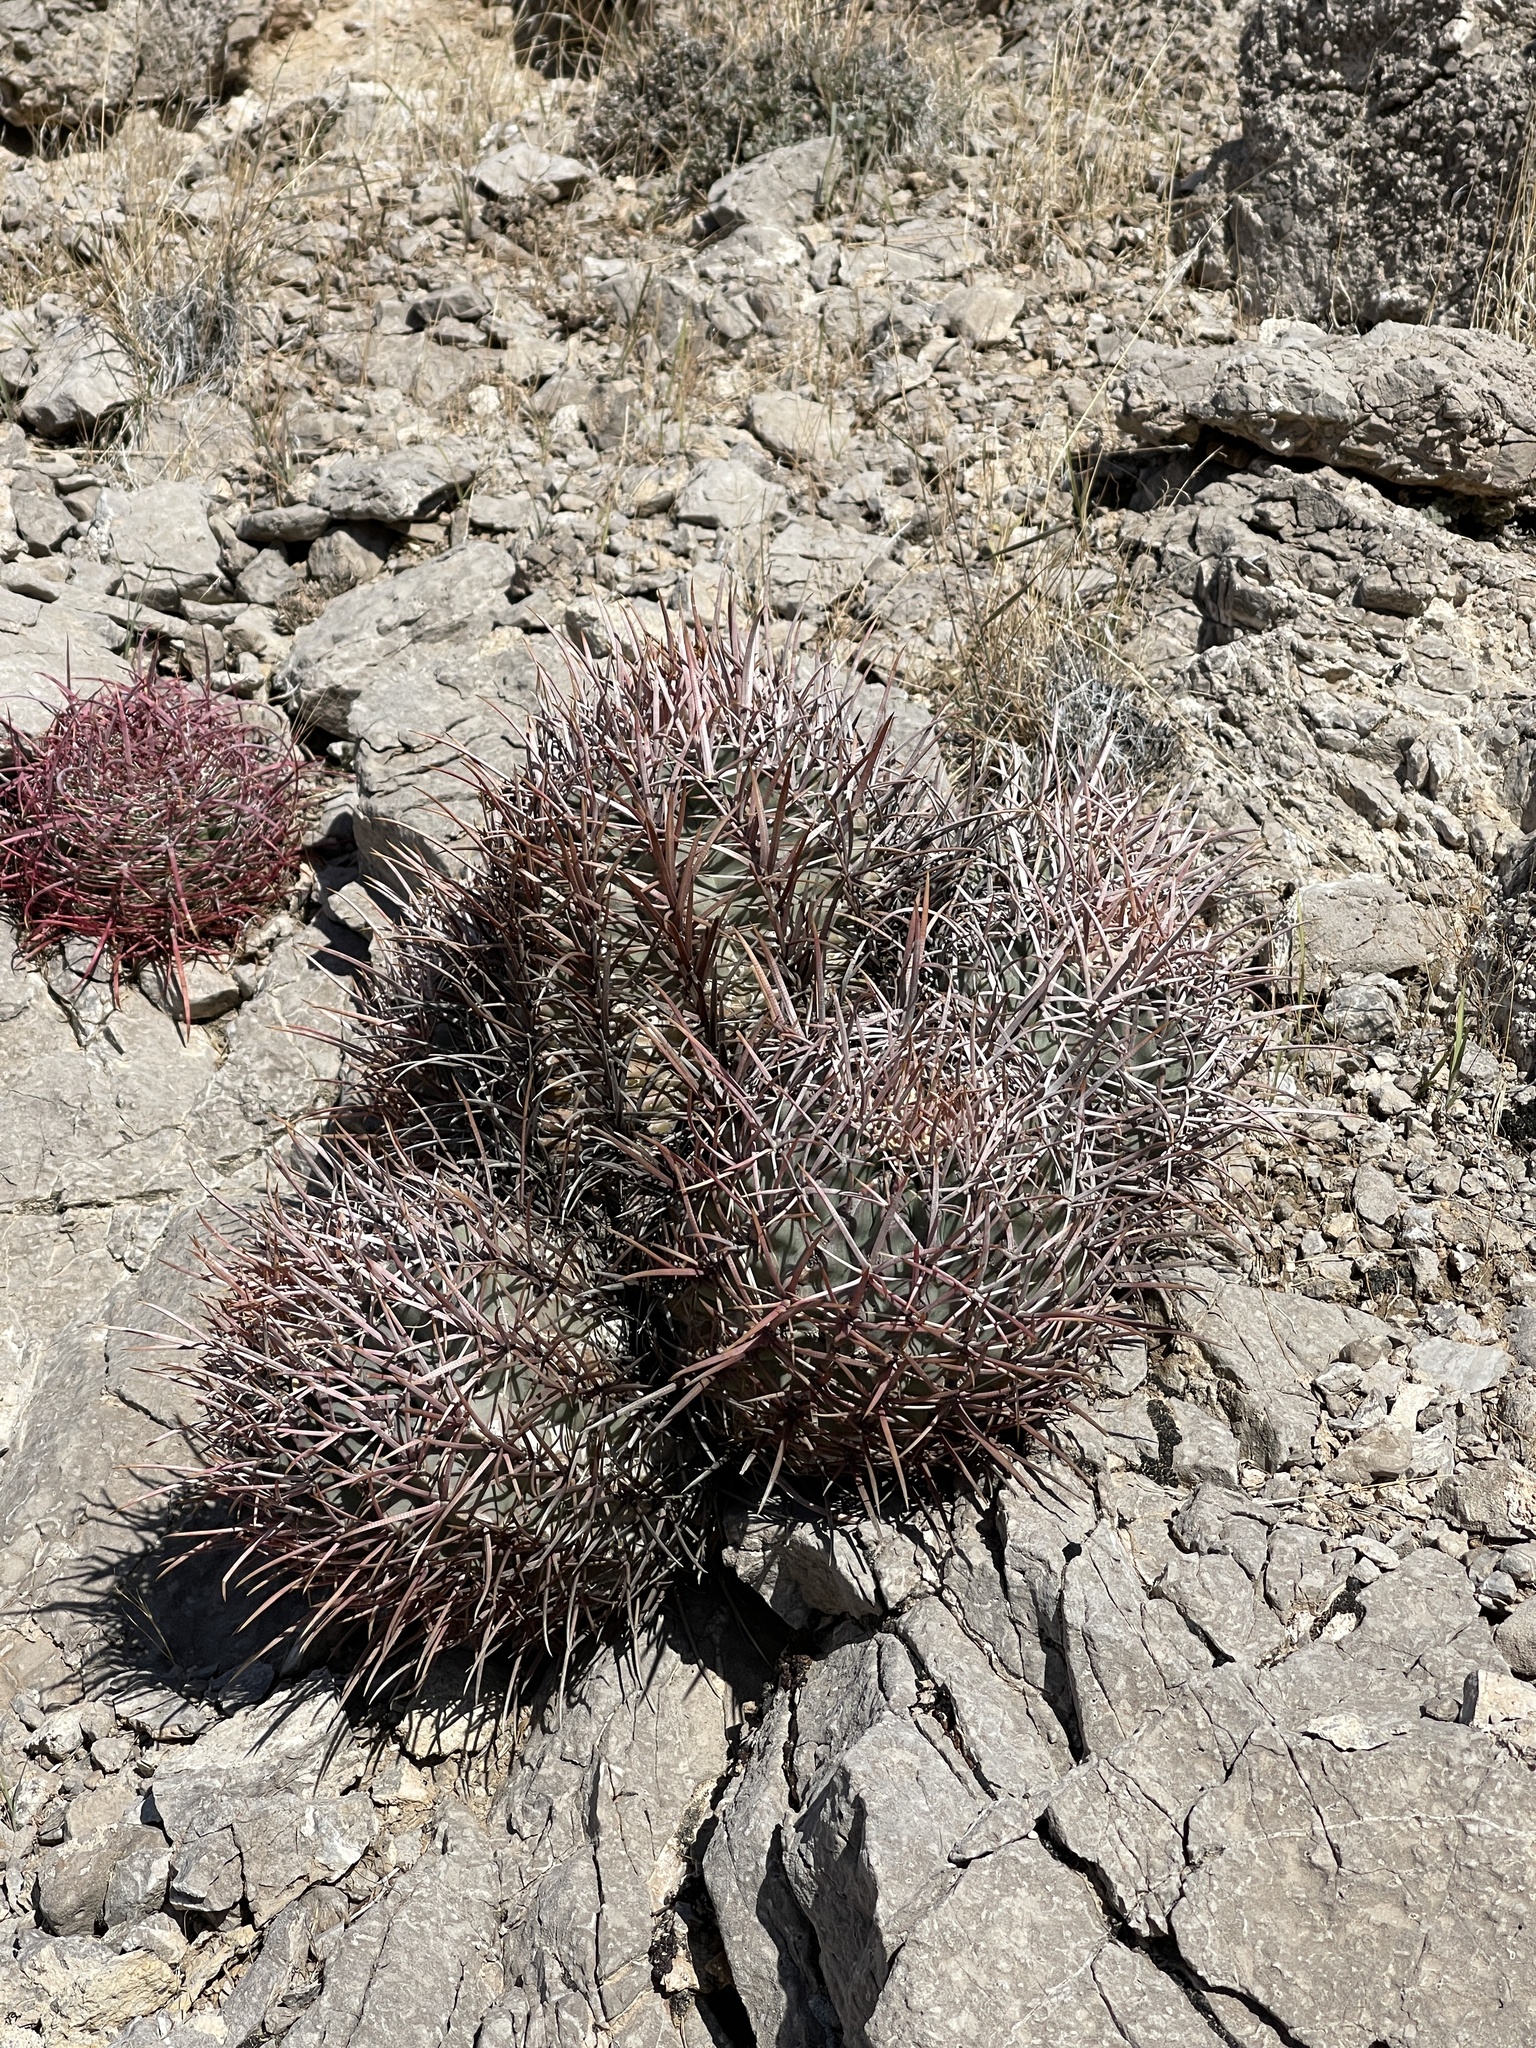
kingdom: Plantae
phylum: Tracheophyta
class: Magnoliopsida
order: Caryophyllales
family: Cactaceae
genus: Echinocactus
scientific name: Echinocactus polycephalus
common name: Cottontop cactus
